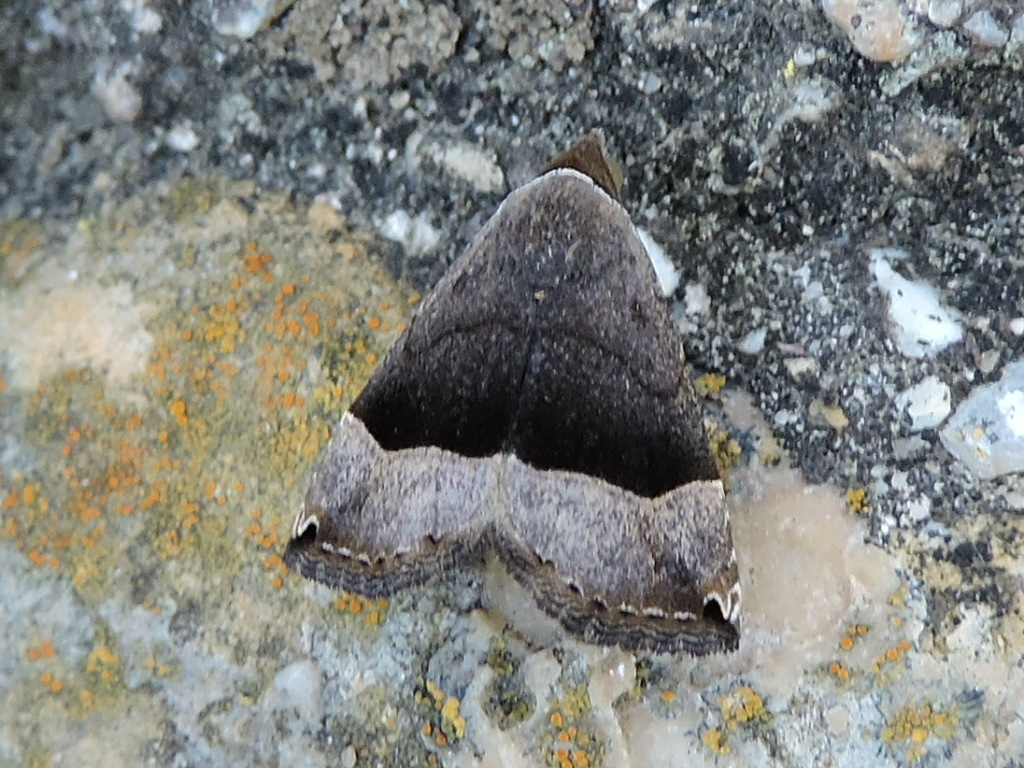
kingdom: Animalia
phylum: Arthropoda
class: Insecta
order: Lepidoptera
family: Noctuidae
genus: Abacena
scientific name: Abacena mundula
